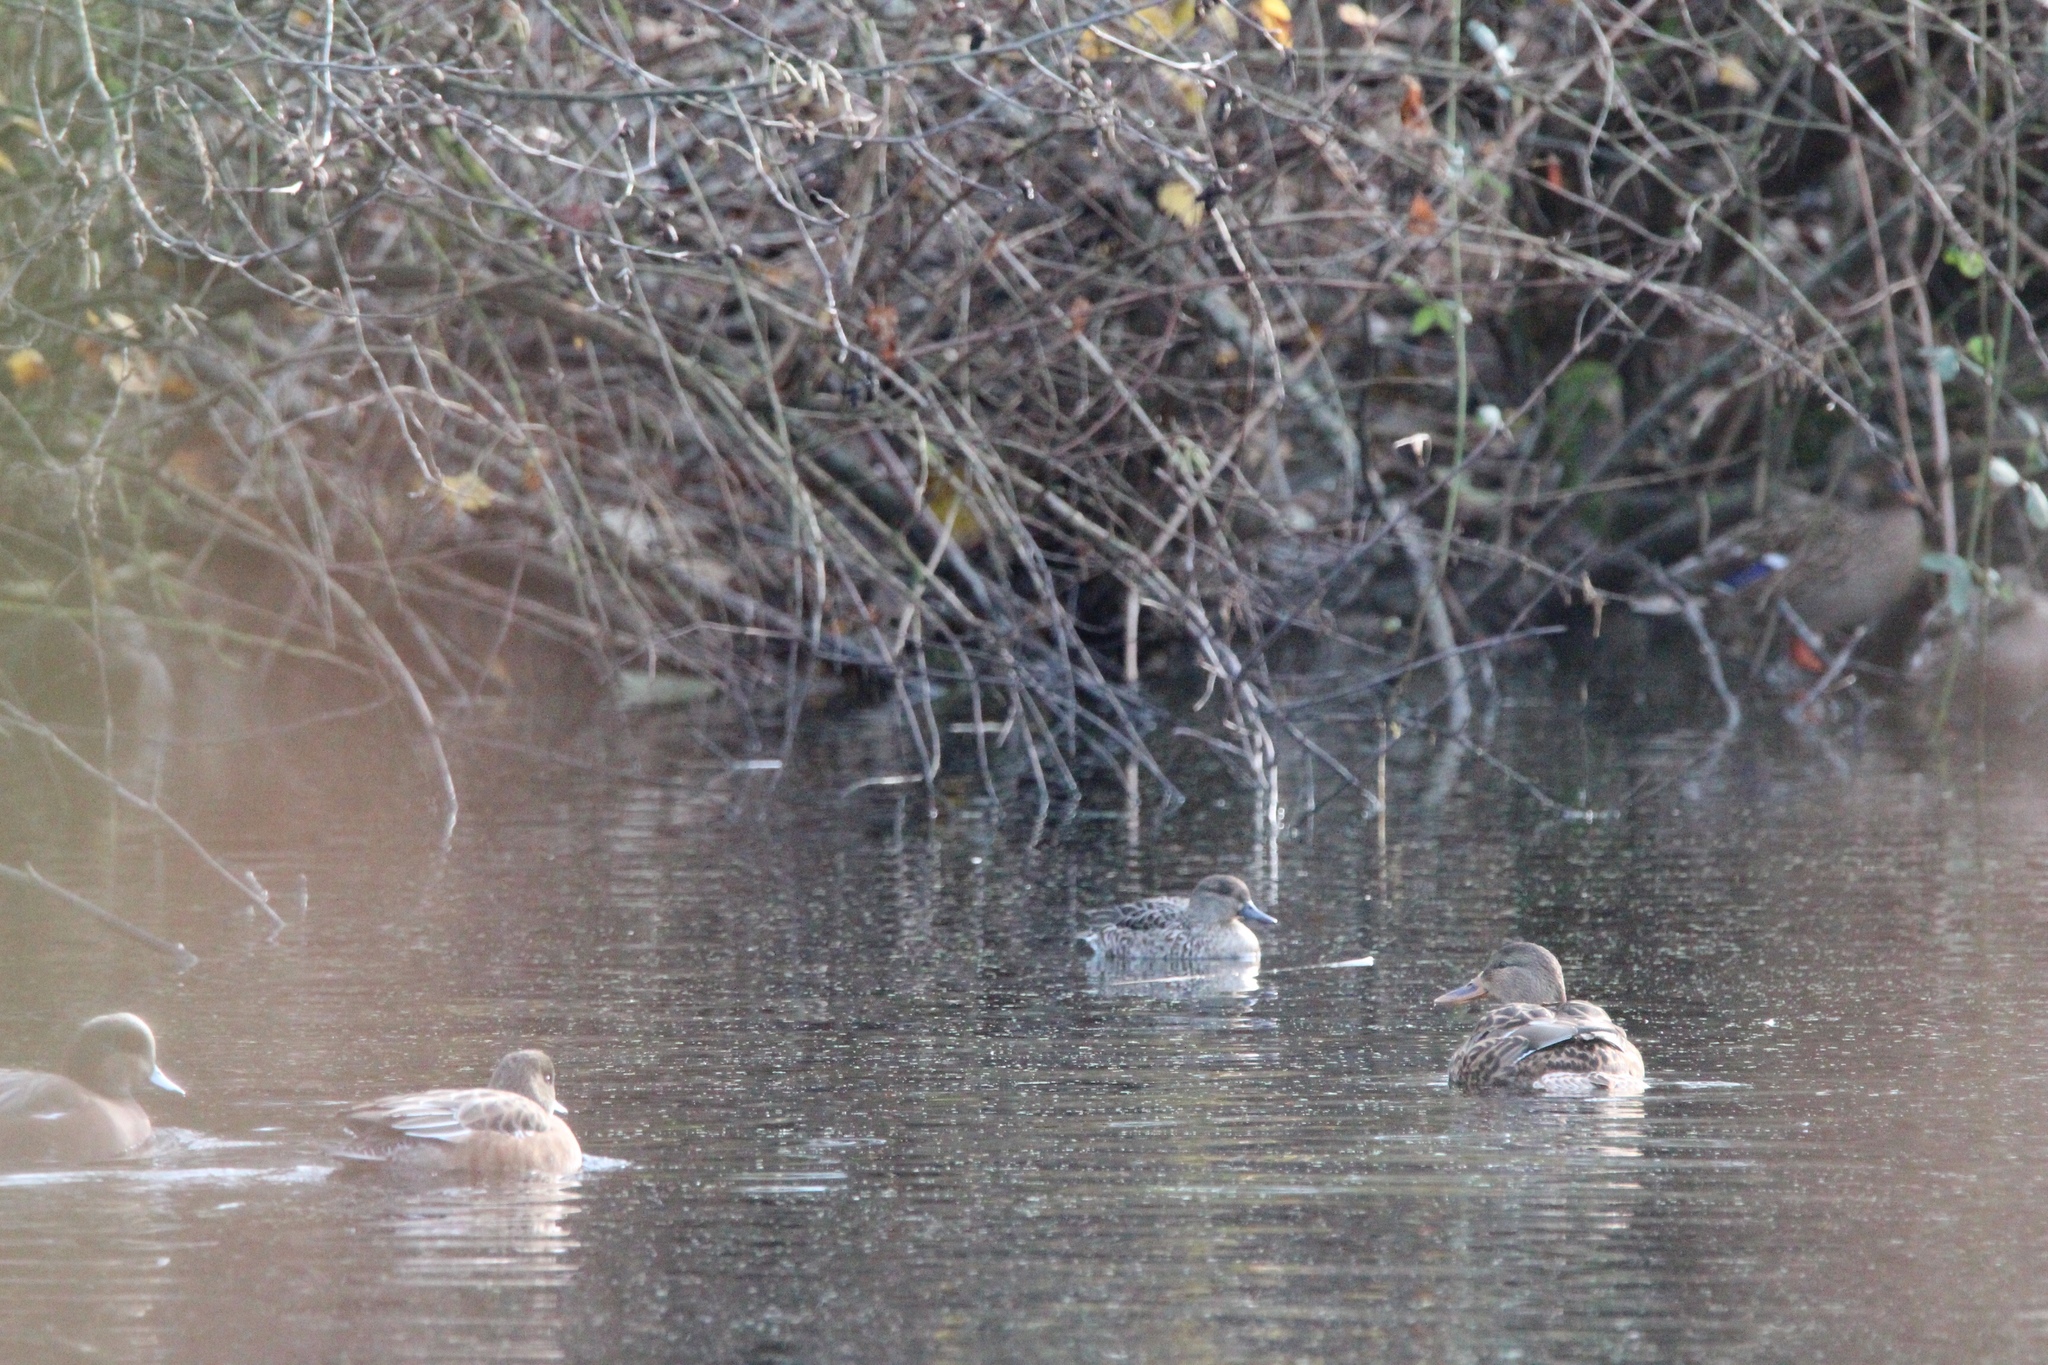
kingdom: Animalia
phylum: Chordata
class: Aves
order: Anseriformes
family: Anatidae
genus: Anas
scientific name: Anas crecca
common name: Eurasian teal
